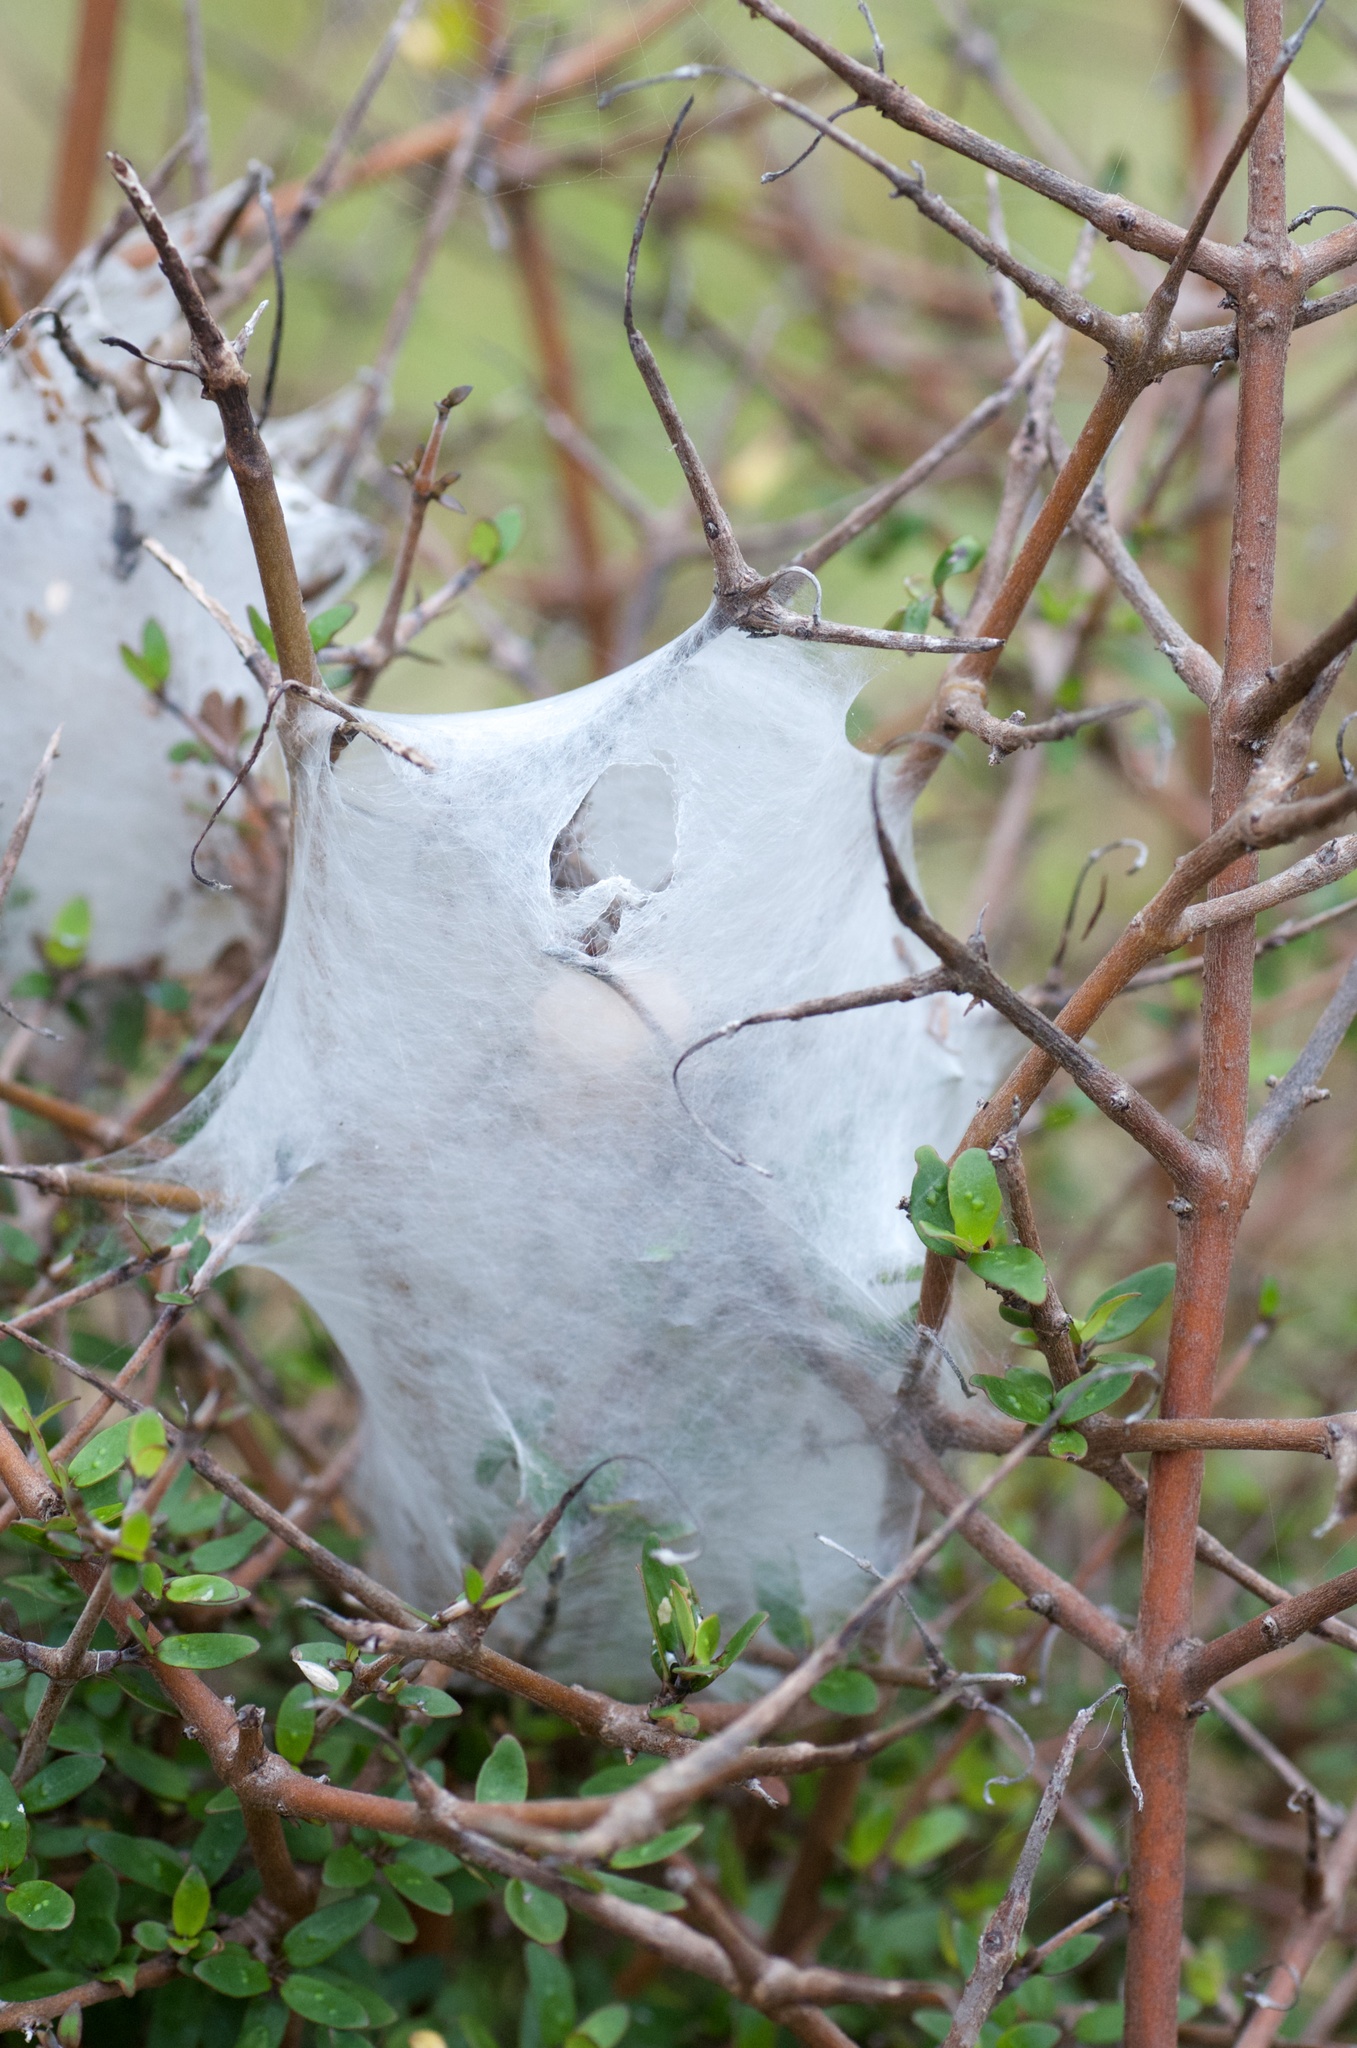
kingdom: Animalia
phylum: Arthropoda
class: Arachnida
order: Araneae
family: Pisauridae
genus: Dolomedes
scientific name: Dolomedes minor
